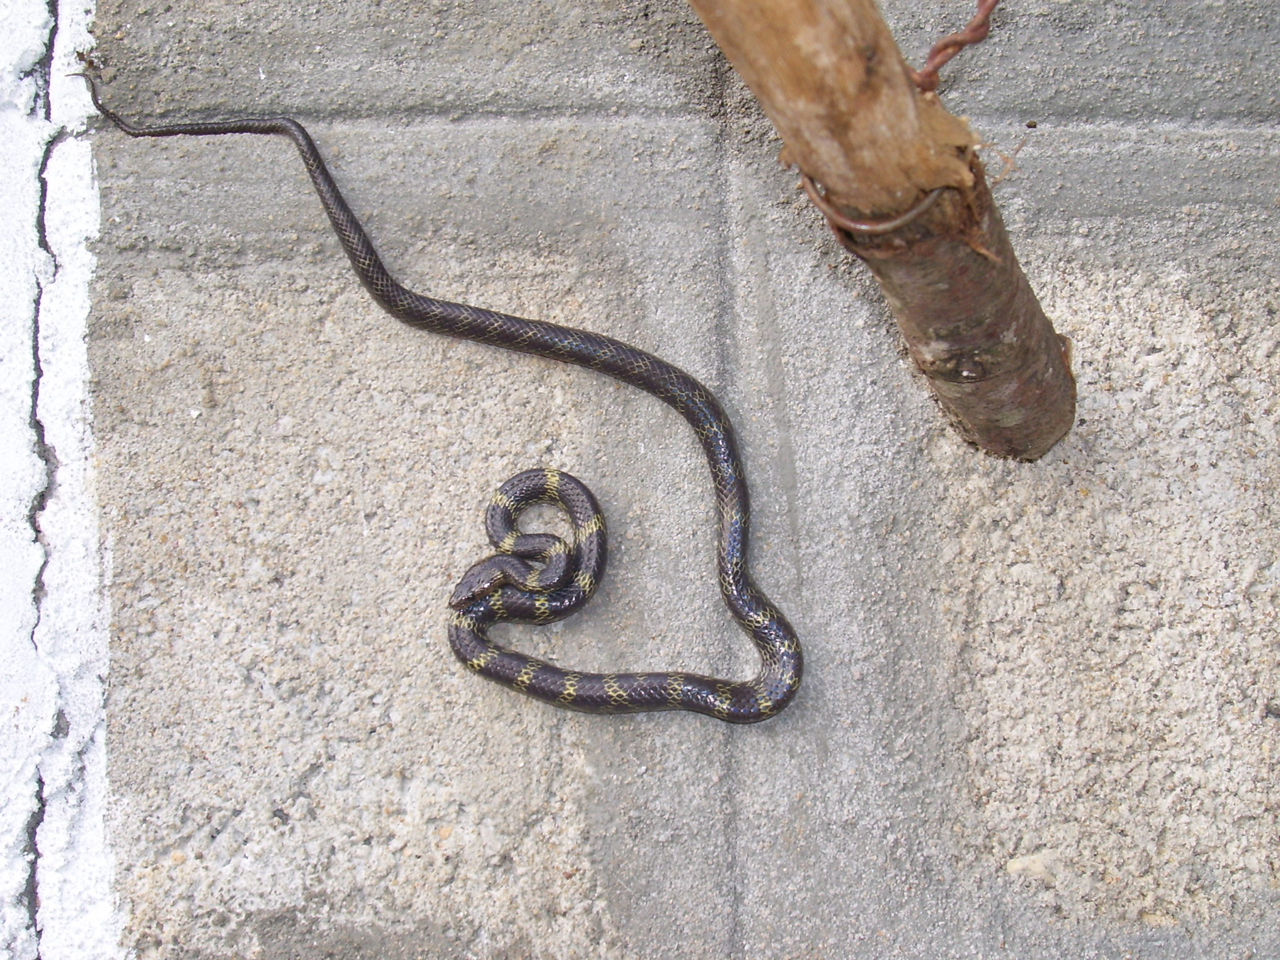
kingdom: Animalia
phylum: Chordata
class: Squamata
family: Colubridae
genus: Lycodon
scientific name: Lycodon travancoricus
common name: Travancore wolf snake
